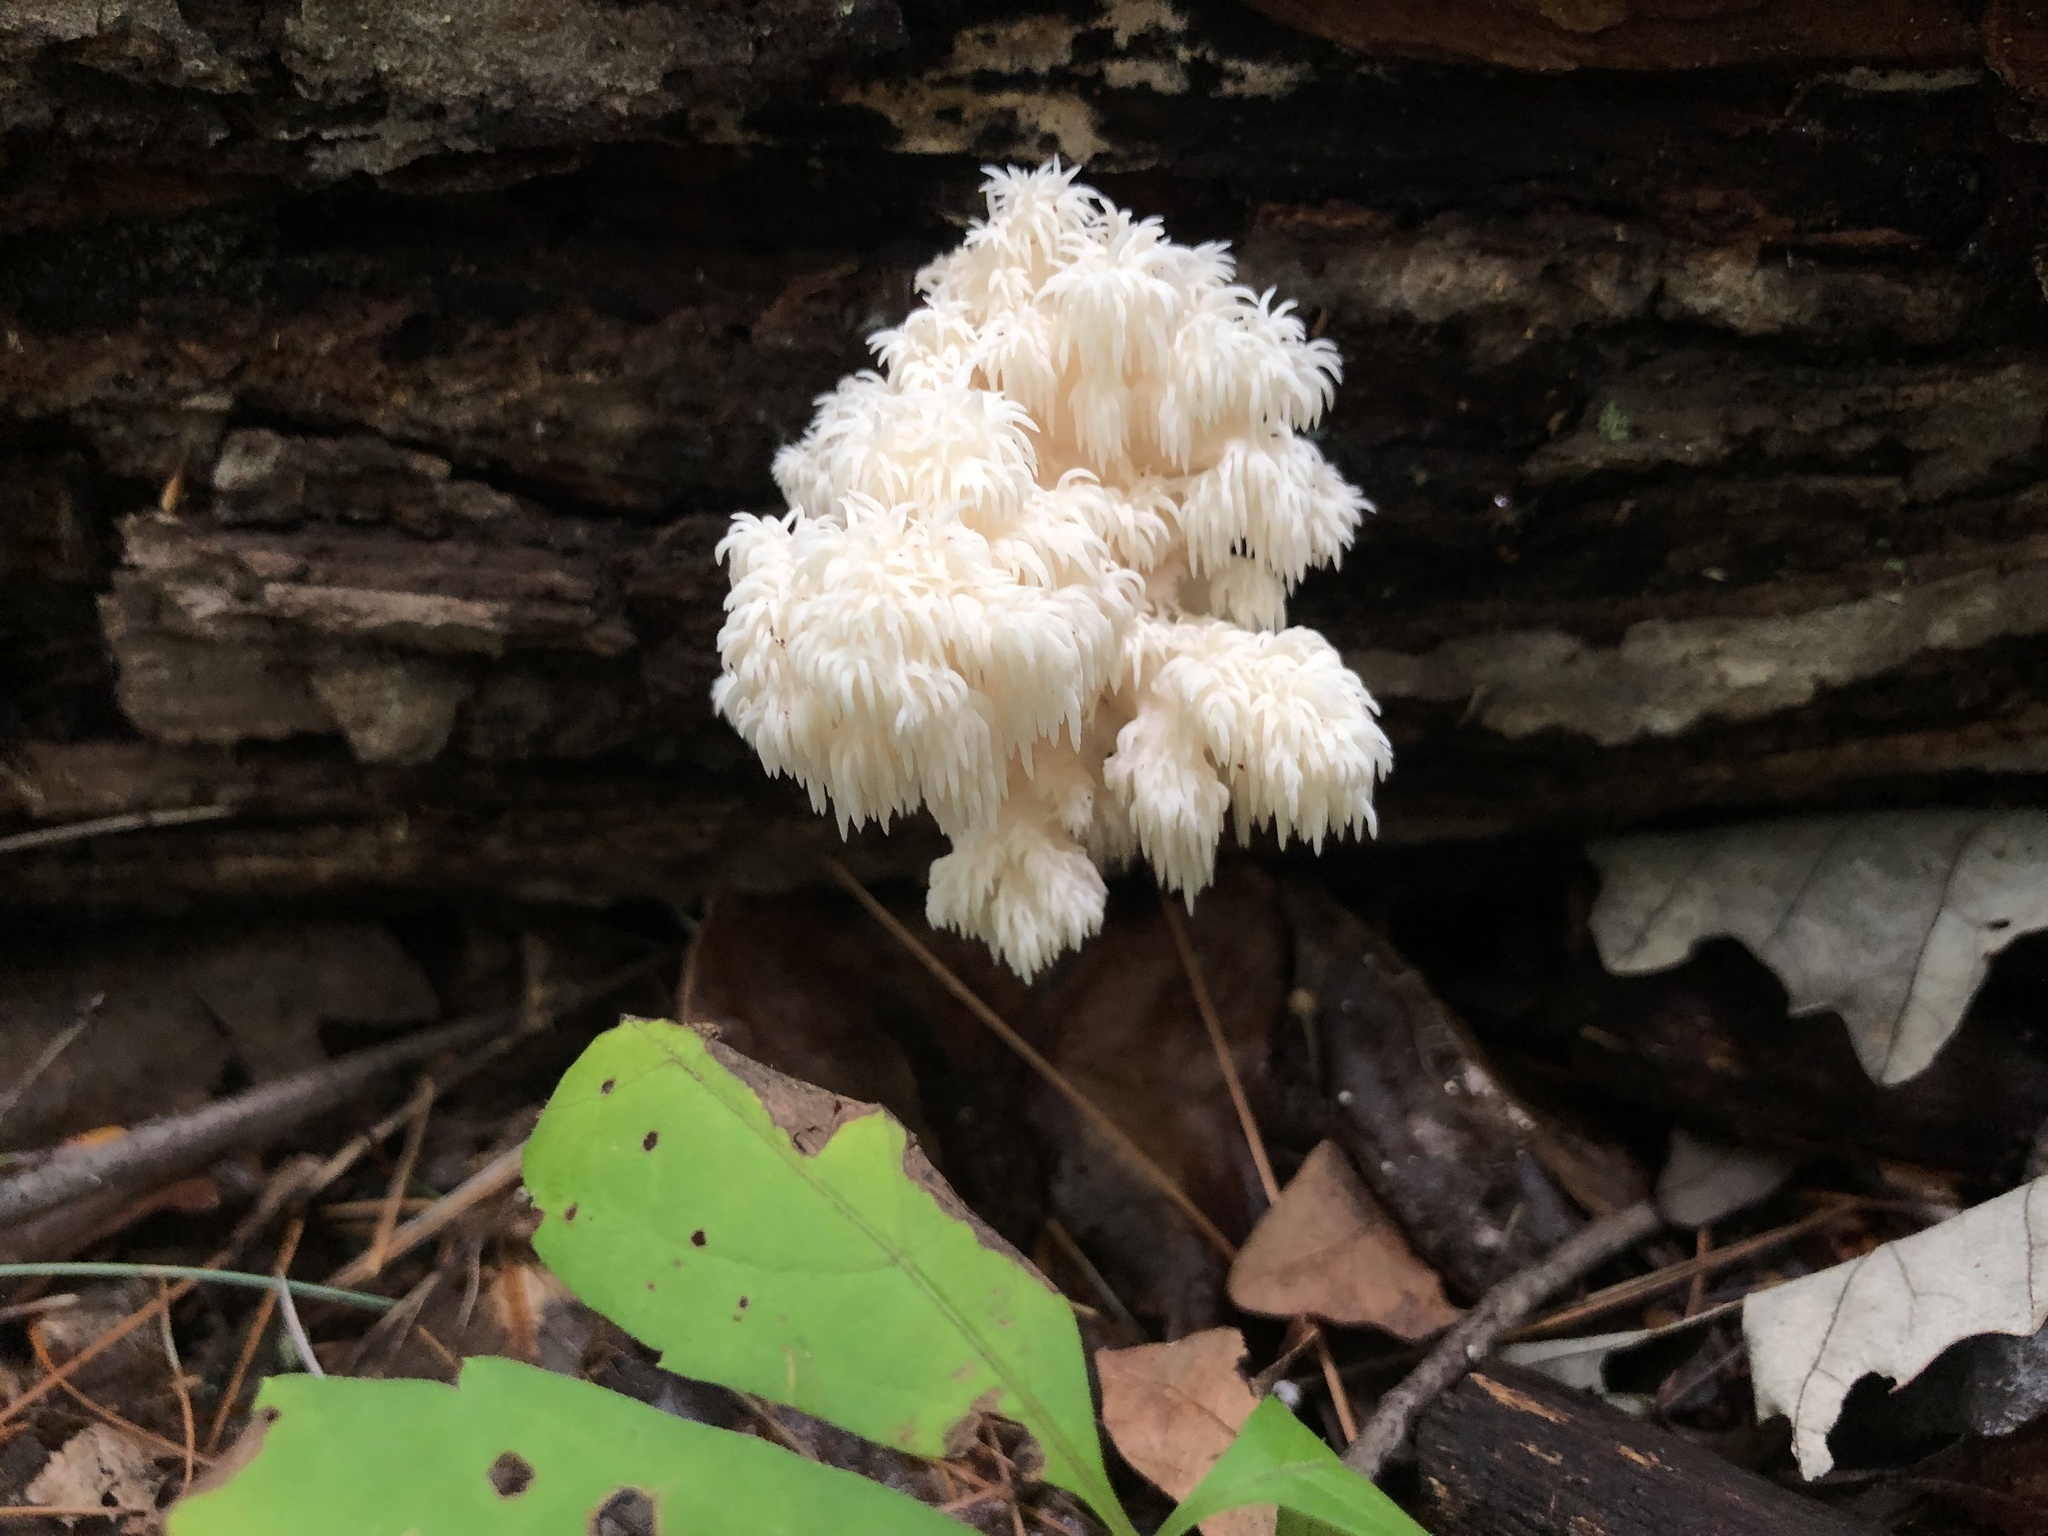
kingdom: Fungi
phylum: Basidiomycota
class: Agaricomycetes
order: Russulales
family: Hericiaceae
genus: Hericium
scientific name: Hericium americanum
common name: Bear's head tooth
